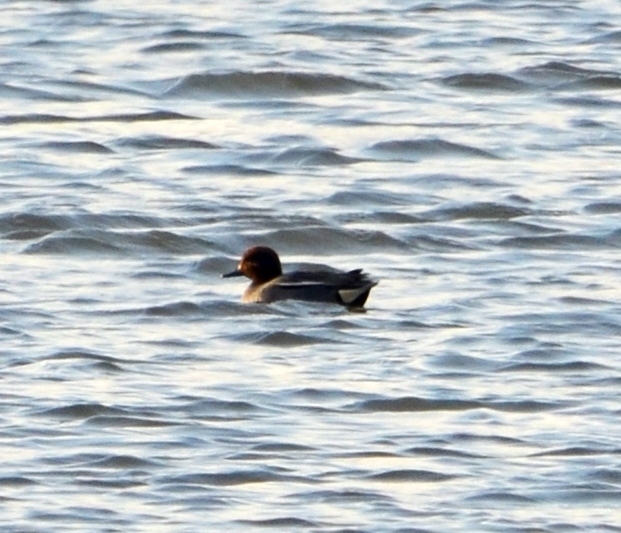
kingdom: Animalia
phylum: Chordata
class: Aves
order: Anseriformes
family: Anatidae
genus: Anas
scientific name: Anas crecca
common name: Eurasian teal
